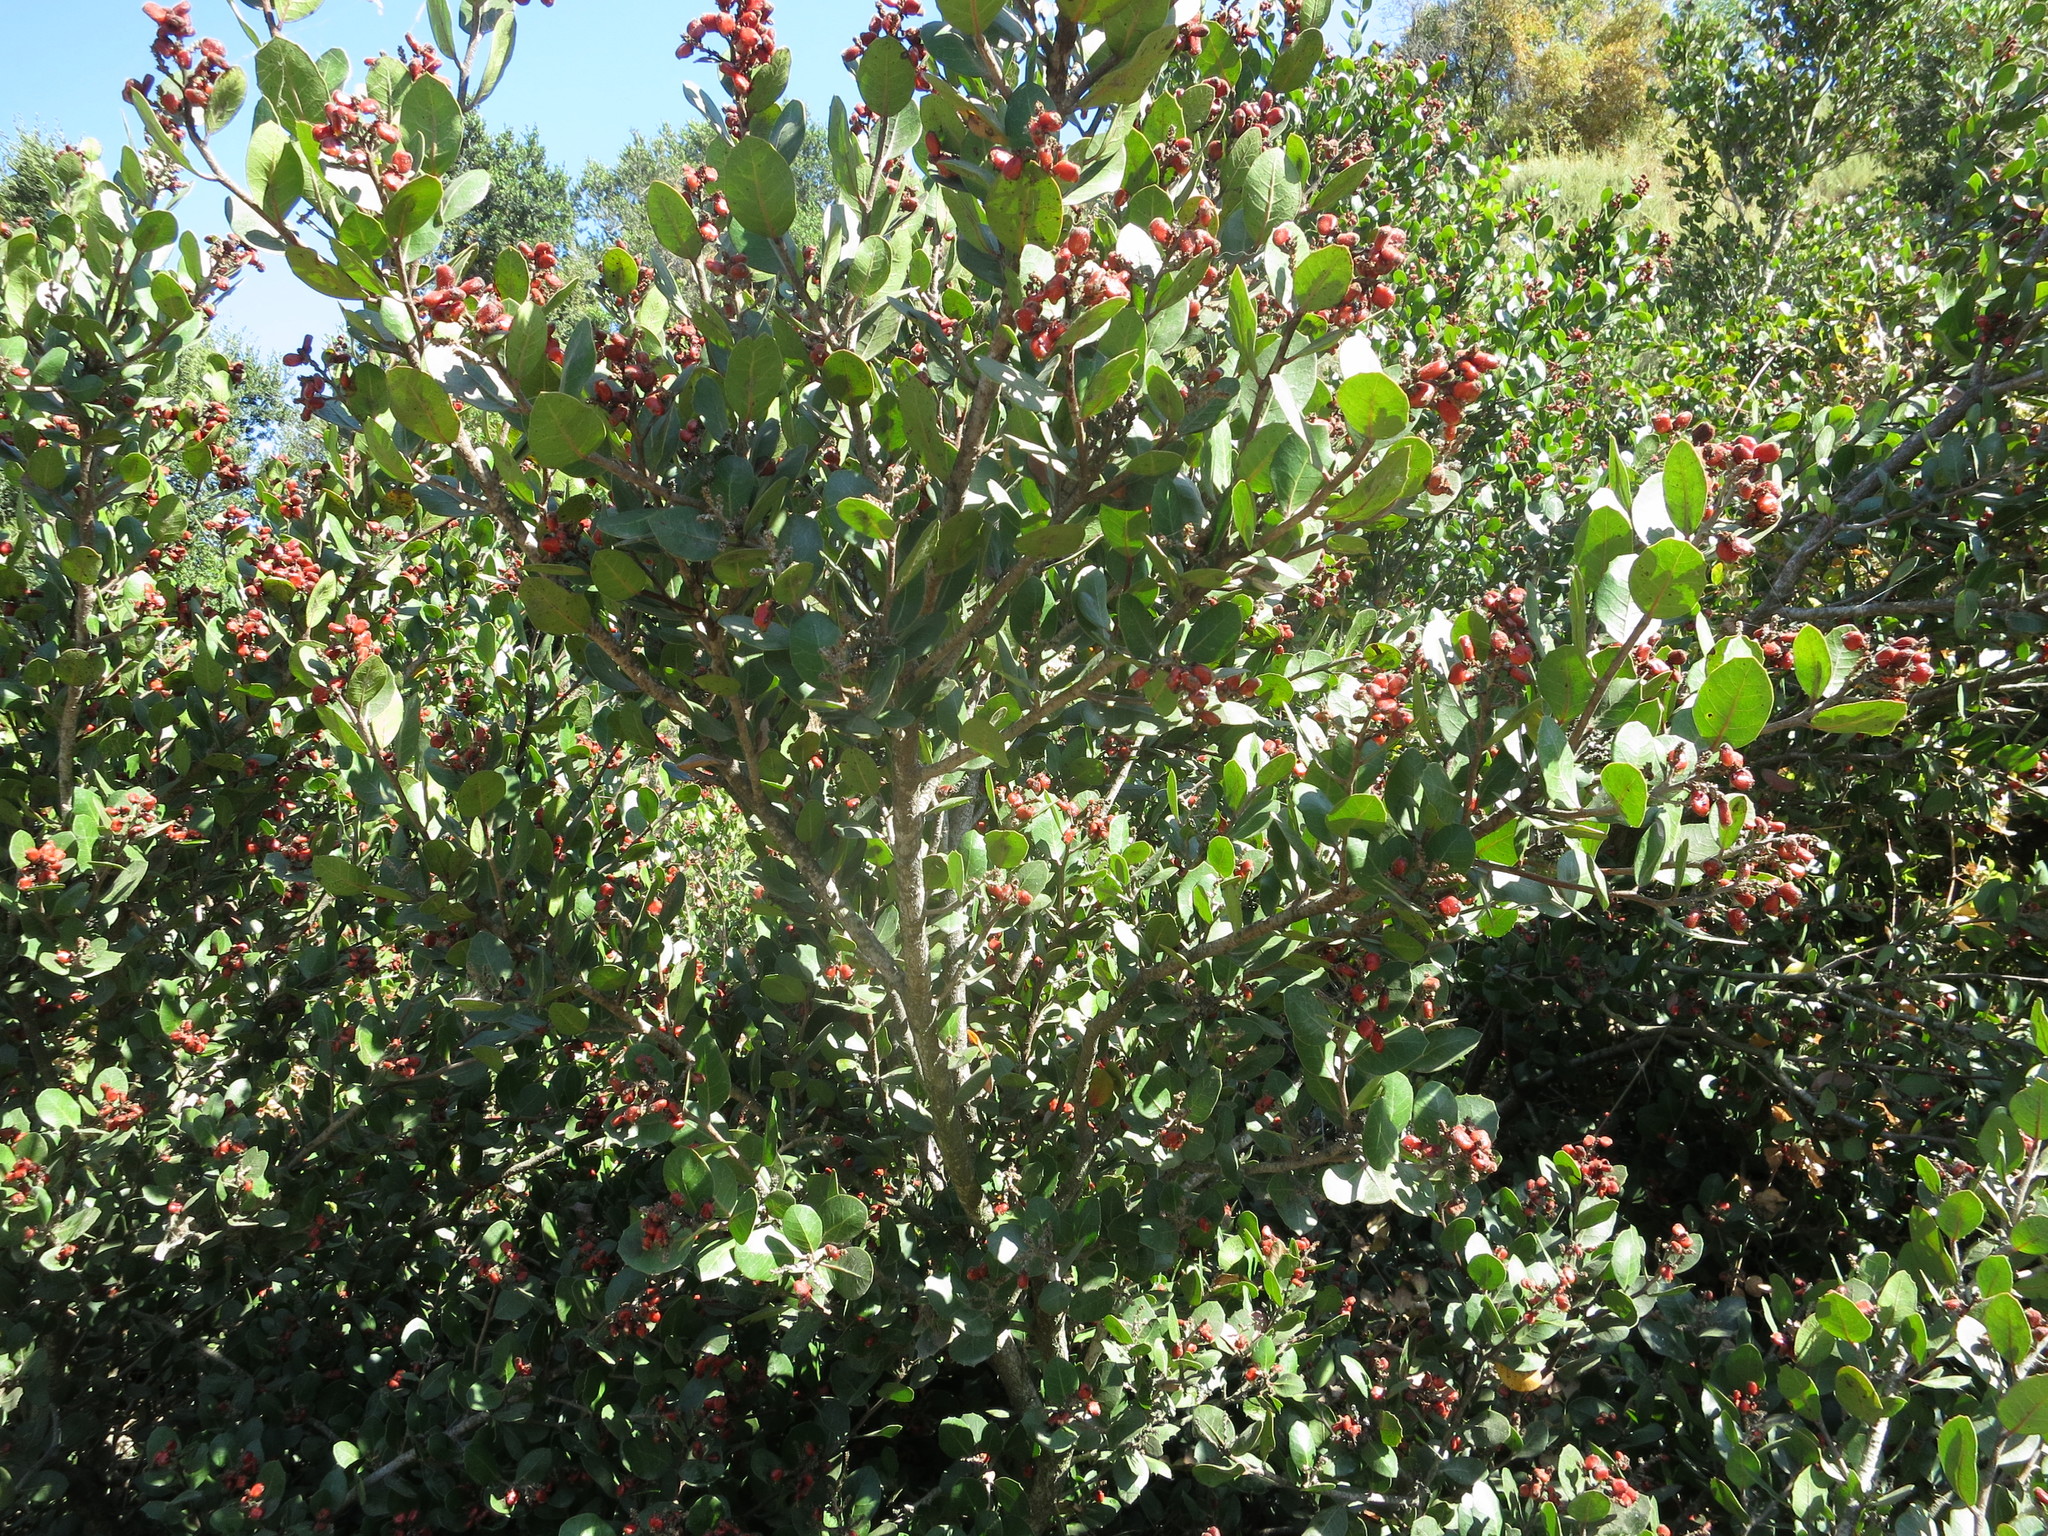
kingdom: Plantae
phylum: Tracheophyta
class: Magnoliopsida
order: Sapindales
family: Anacardiaceae
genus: Rhus
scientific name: Rhus integrifolia
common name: Lemonade sumac
